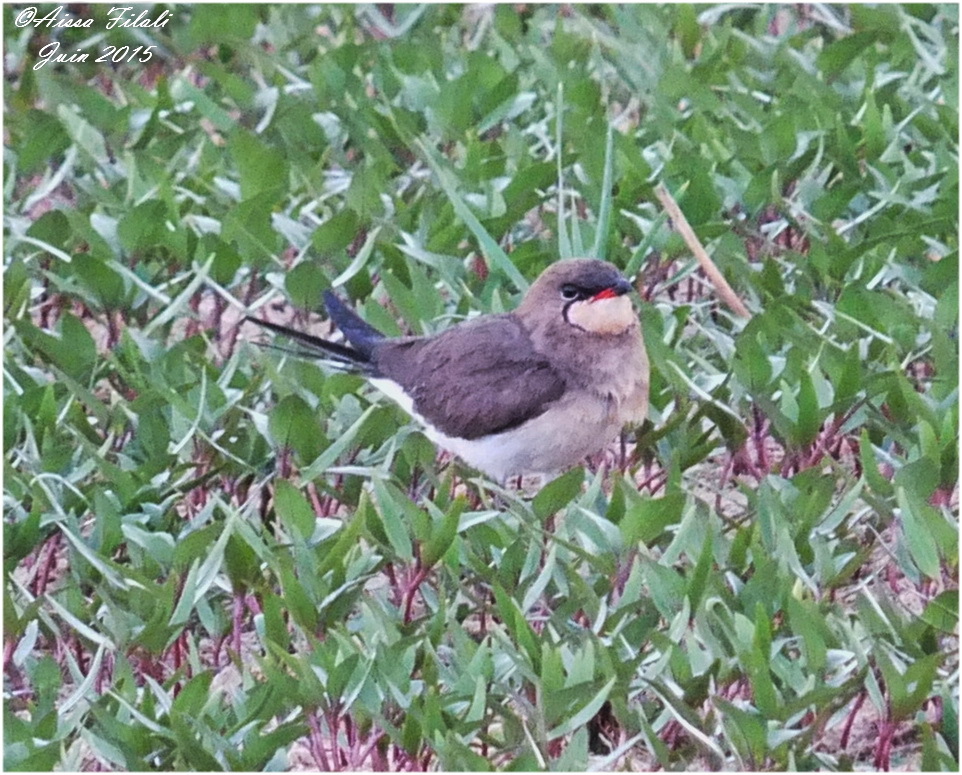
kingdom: Animalia
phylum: Chordata
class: Aves
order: Charadriiformes
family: Glareolidae
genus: Glareola
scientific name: Glareola pratincola
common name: Collared pratincole
